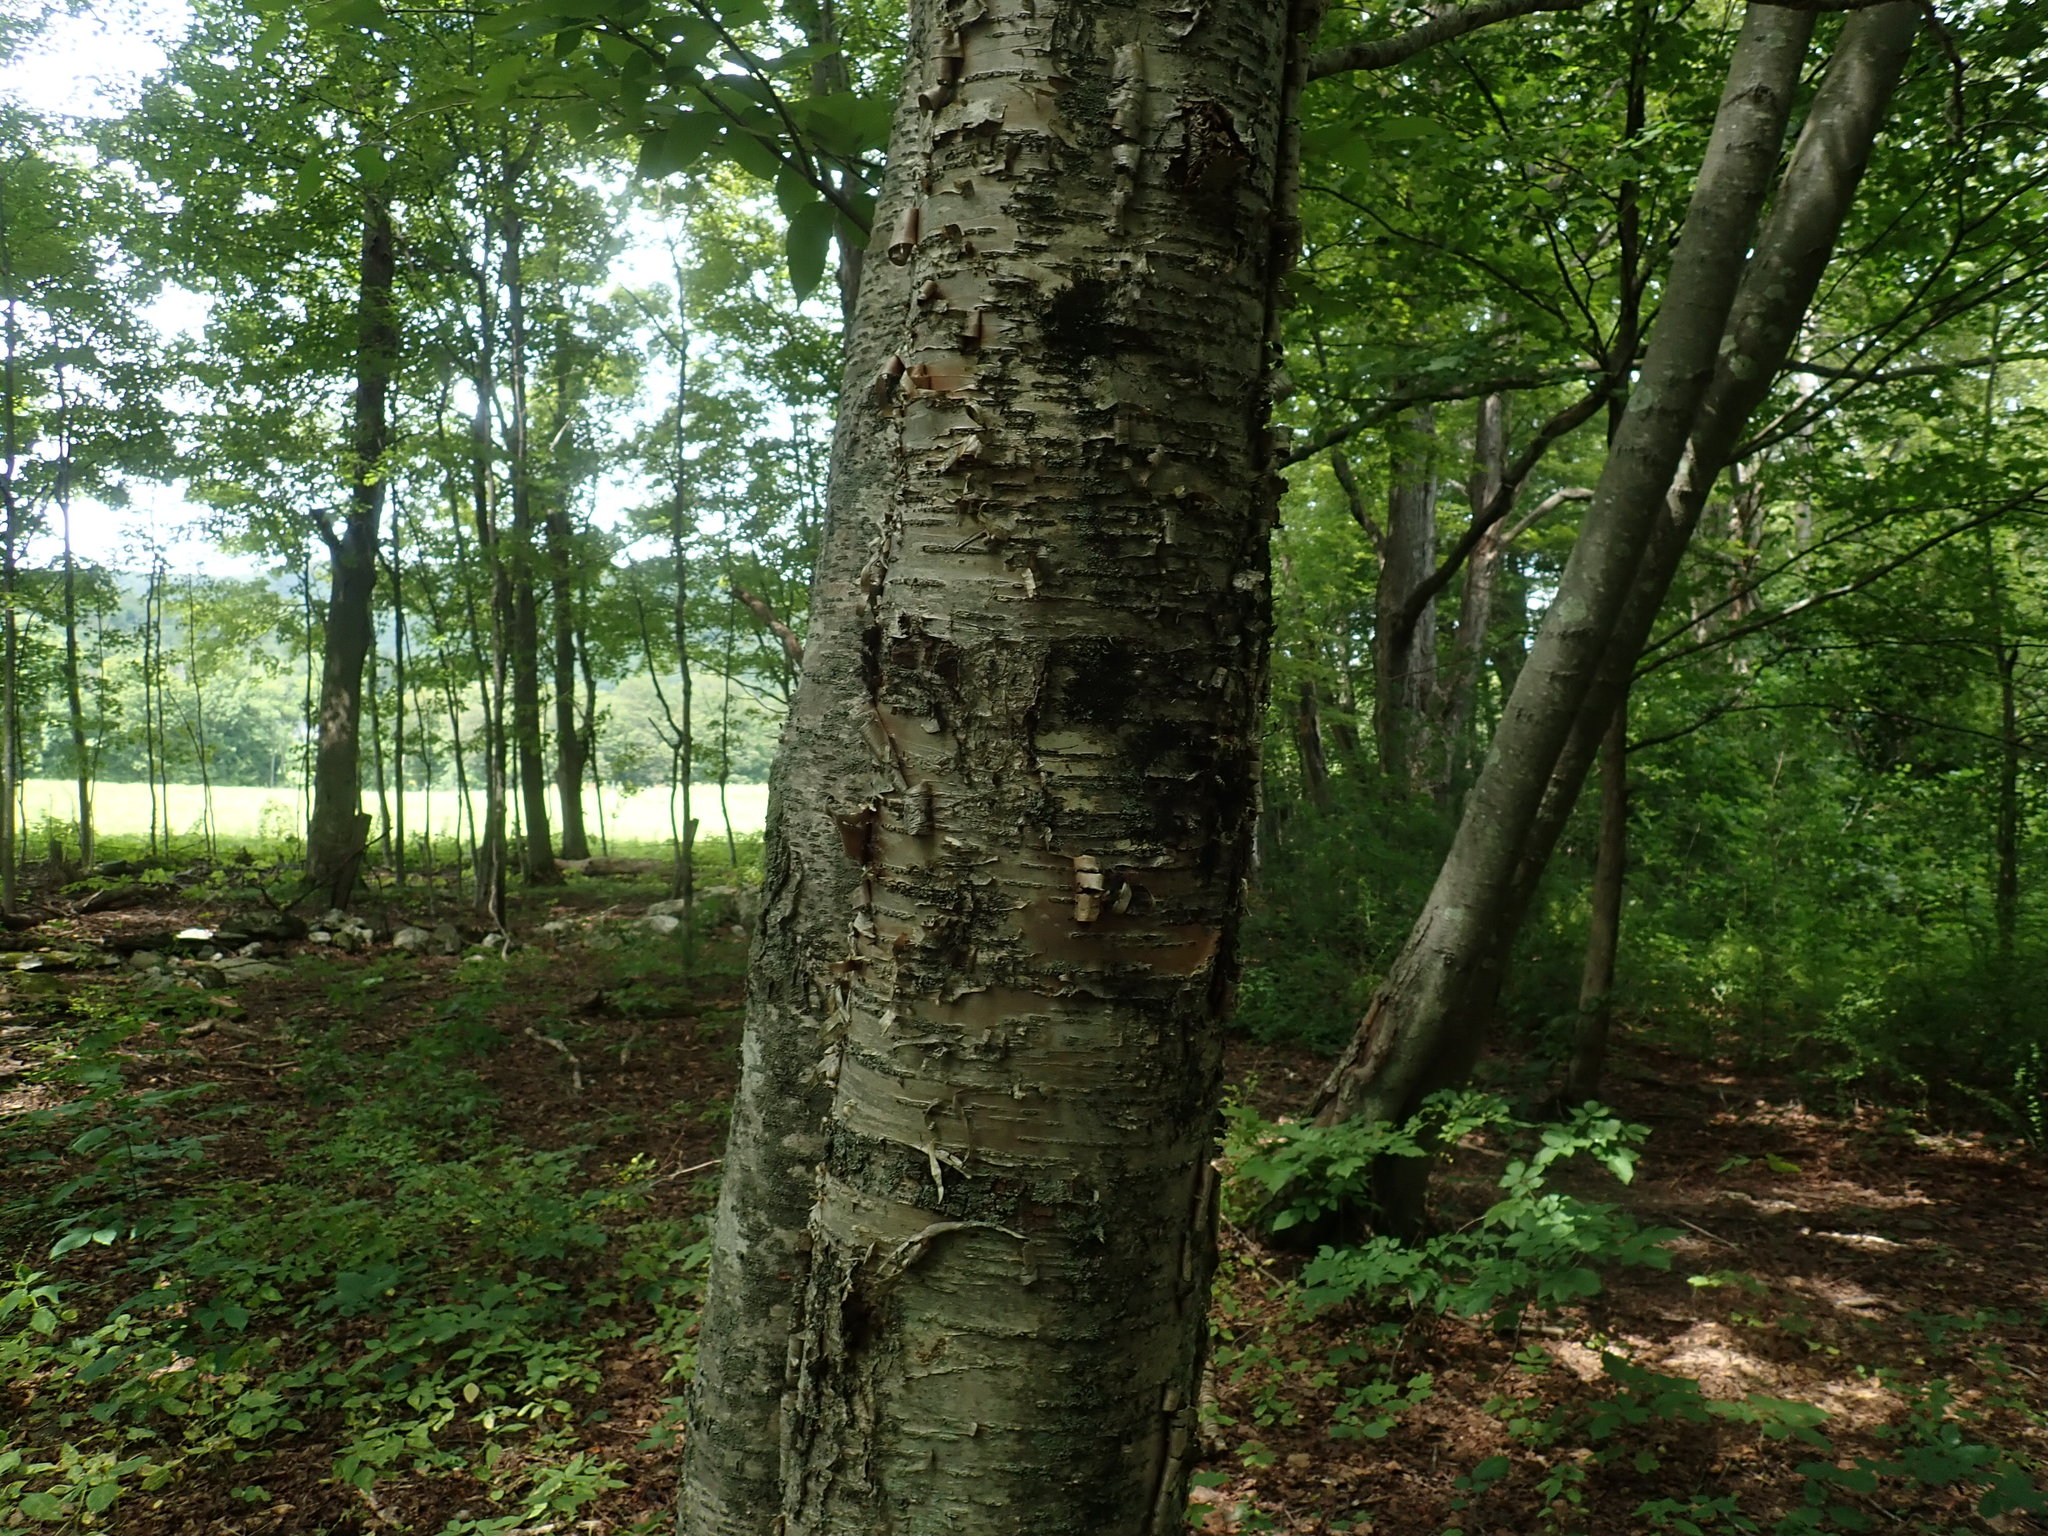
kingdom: Plantae
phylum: Tracheophyta
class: Magnoliopsida
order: Fagales
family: Betulaceae
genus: Betula
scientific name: Betula alleghaniensis
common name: Yellow birch
